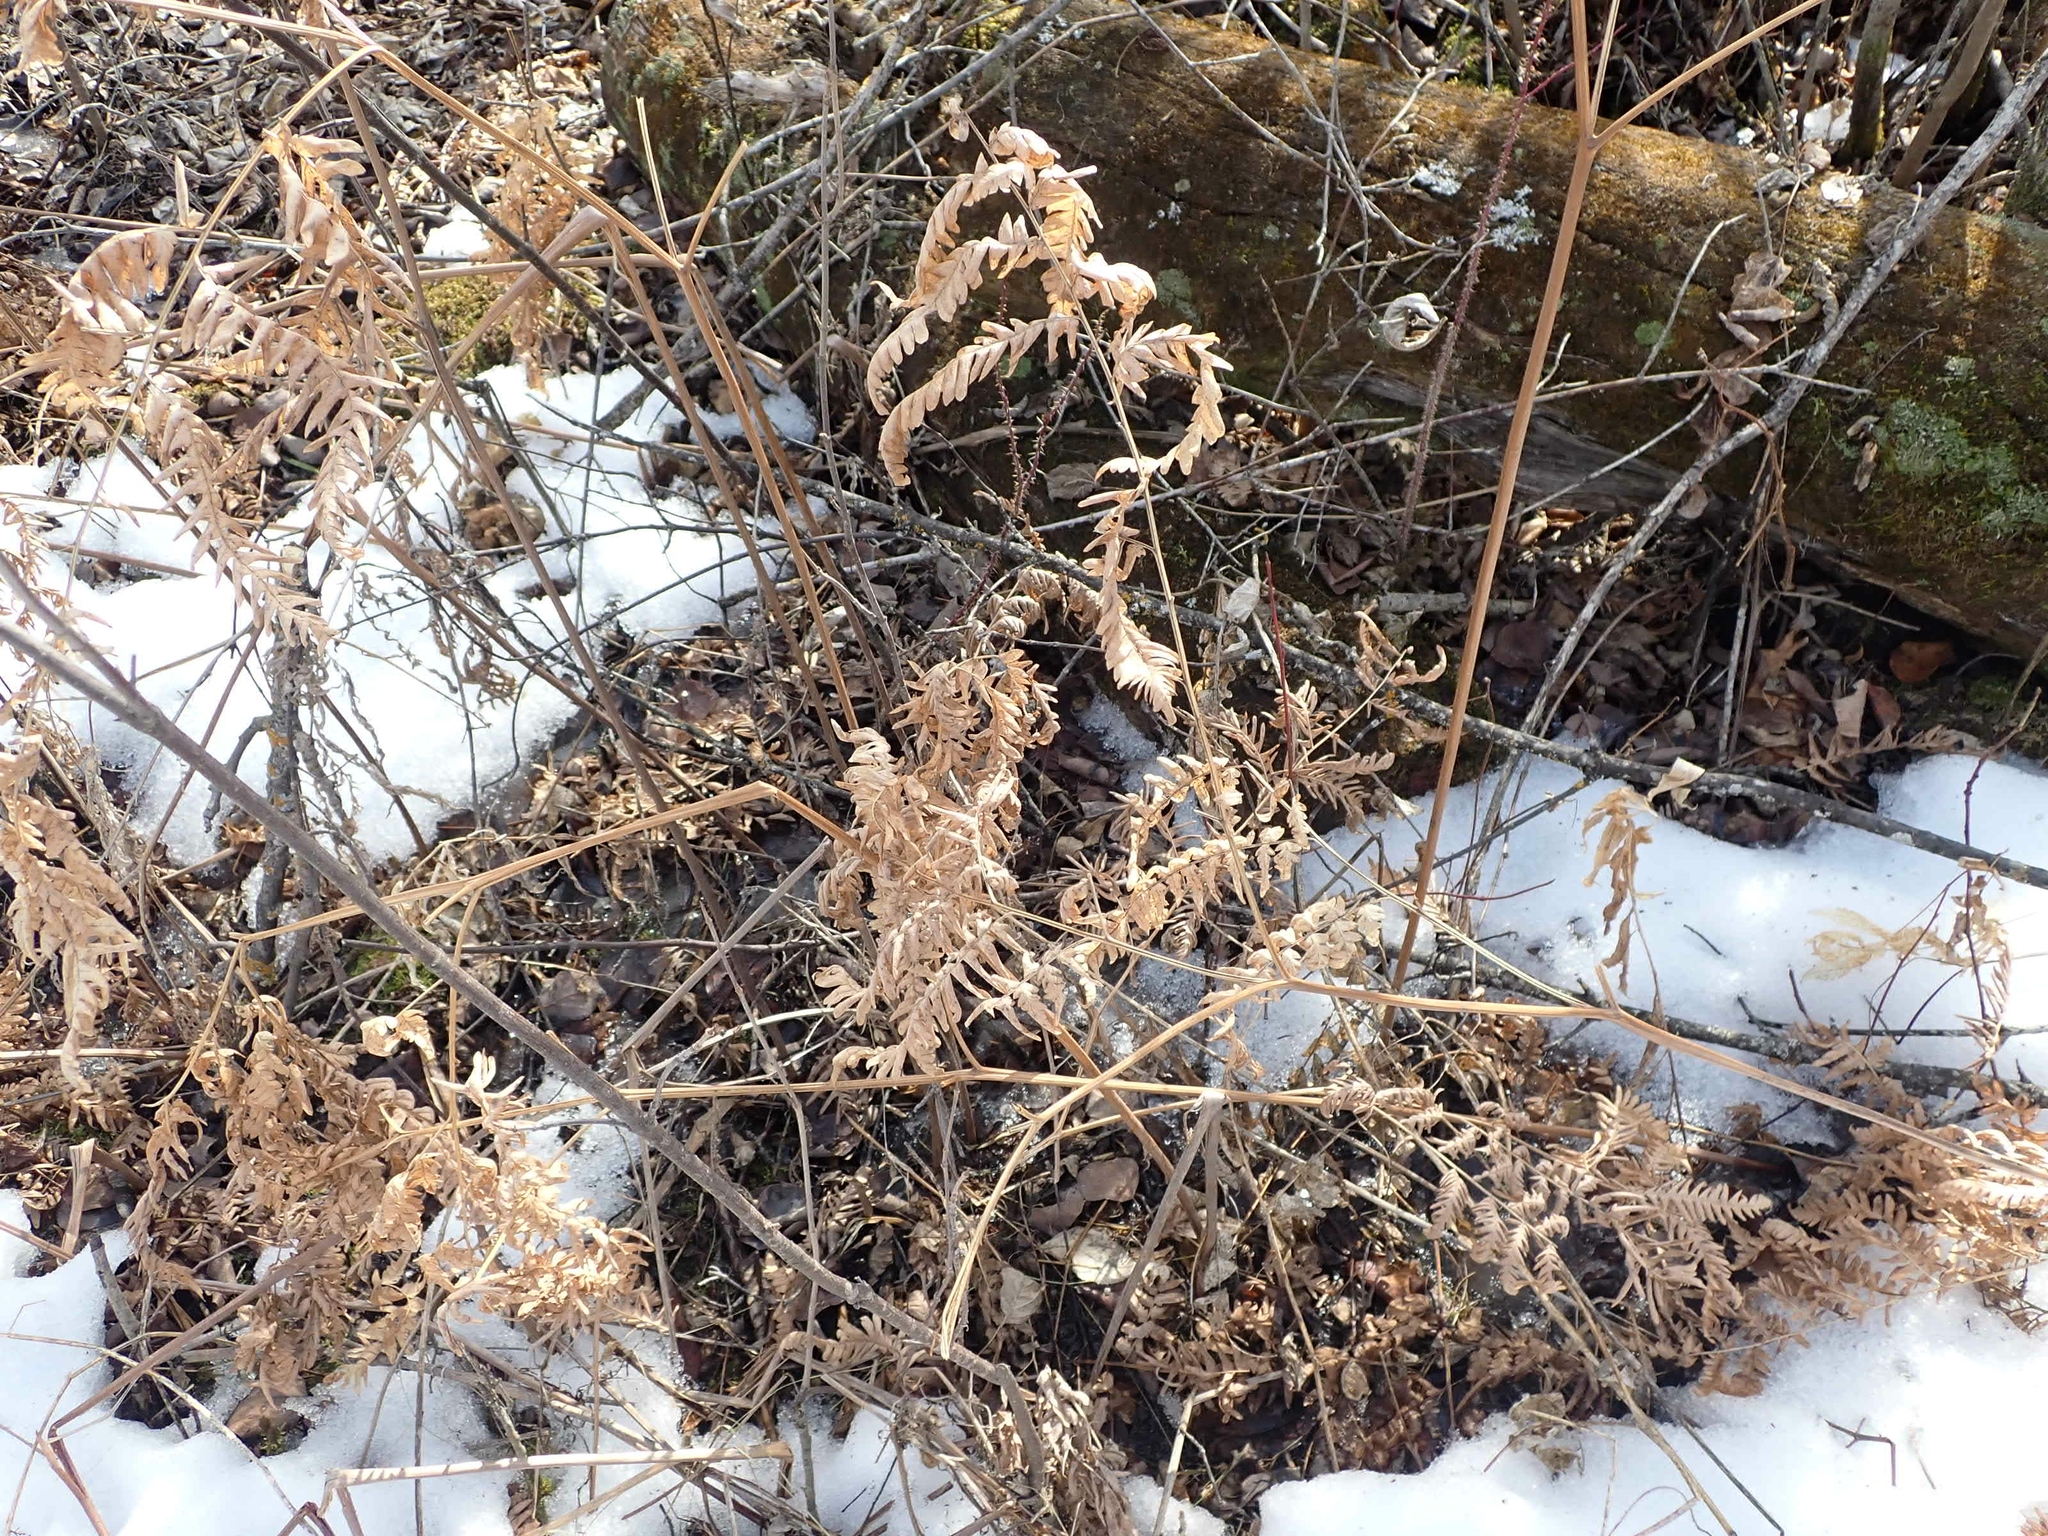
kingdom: Plantae
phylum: Tracheophyta
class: Polypodiopsida
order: Polypodiales
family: Dennstaedtiaceae
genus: Pteridium
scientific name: Pteridium aquilinum
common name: Bracken
